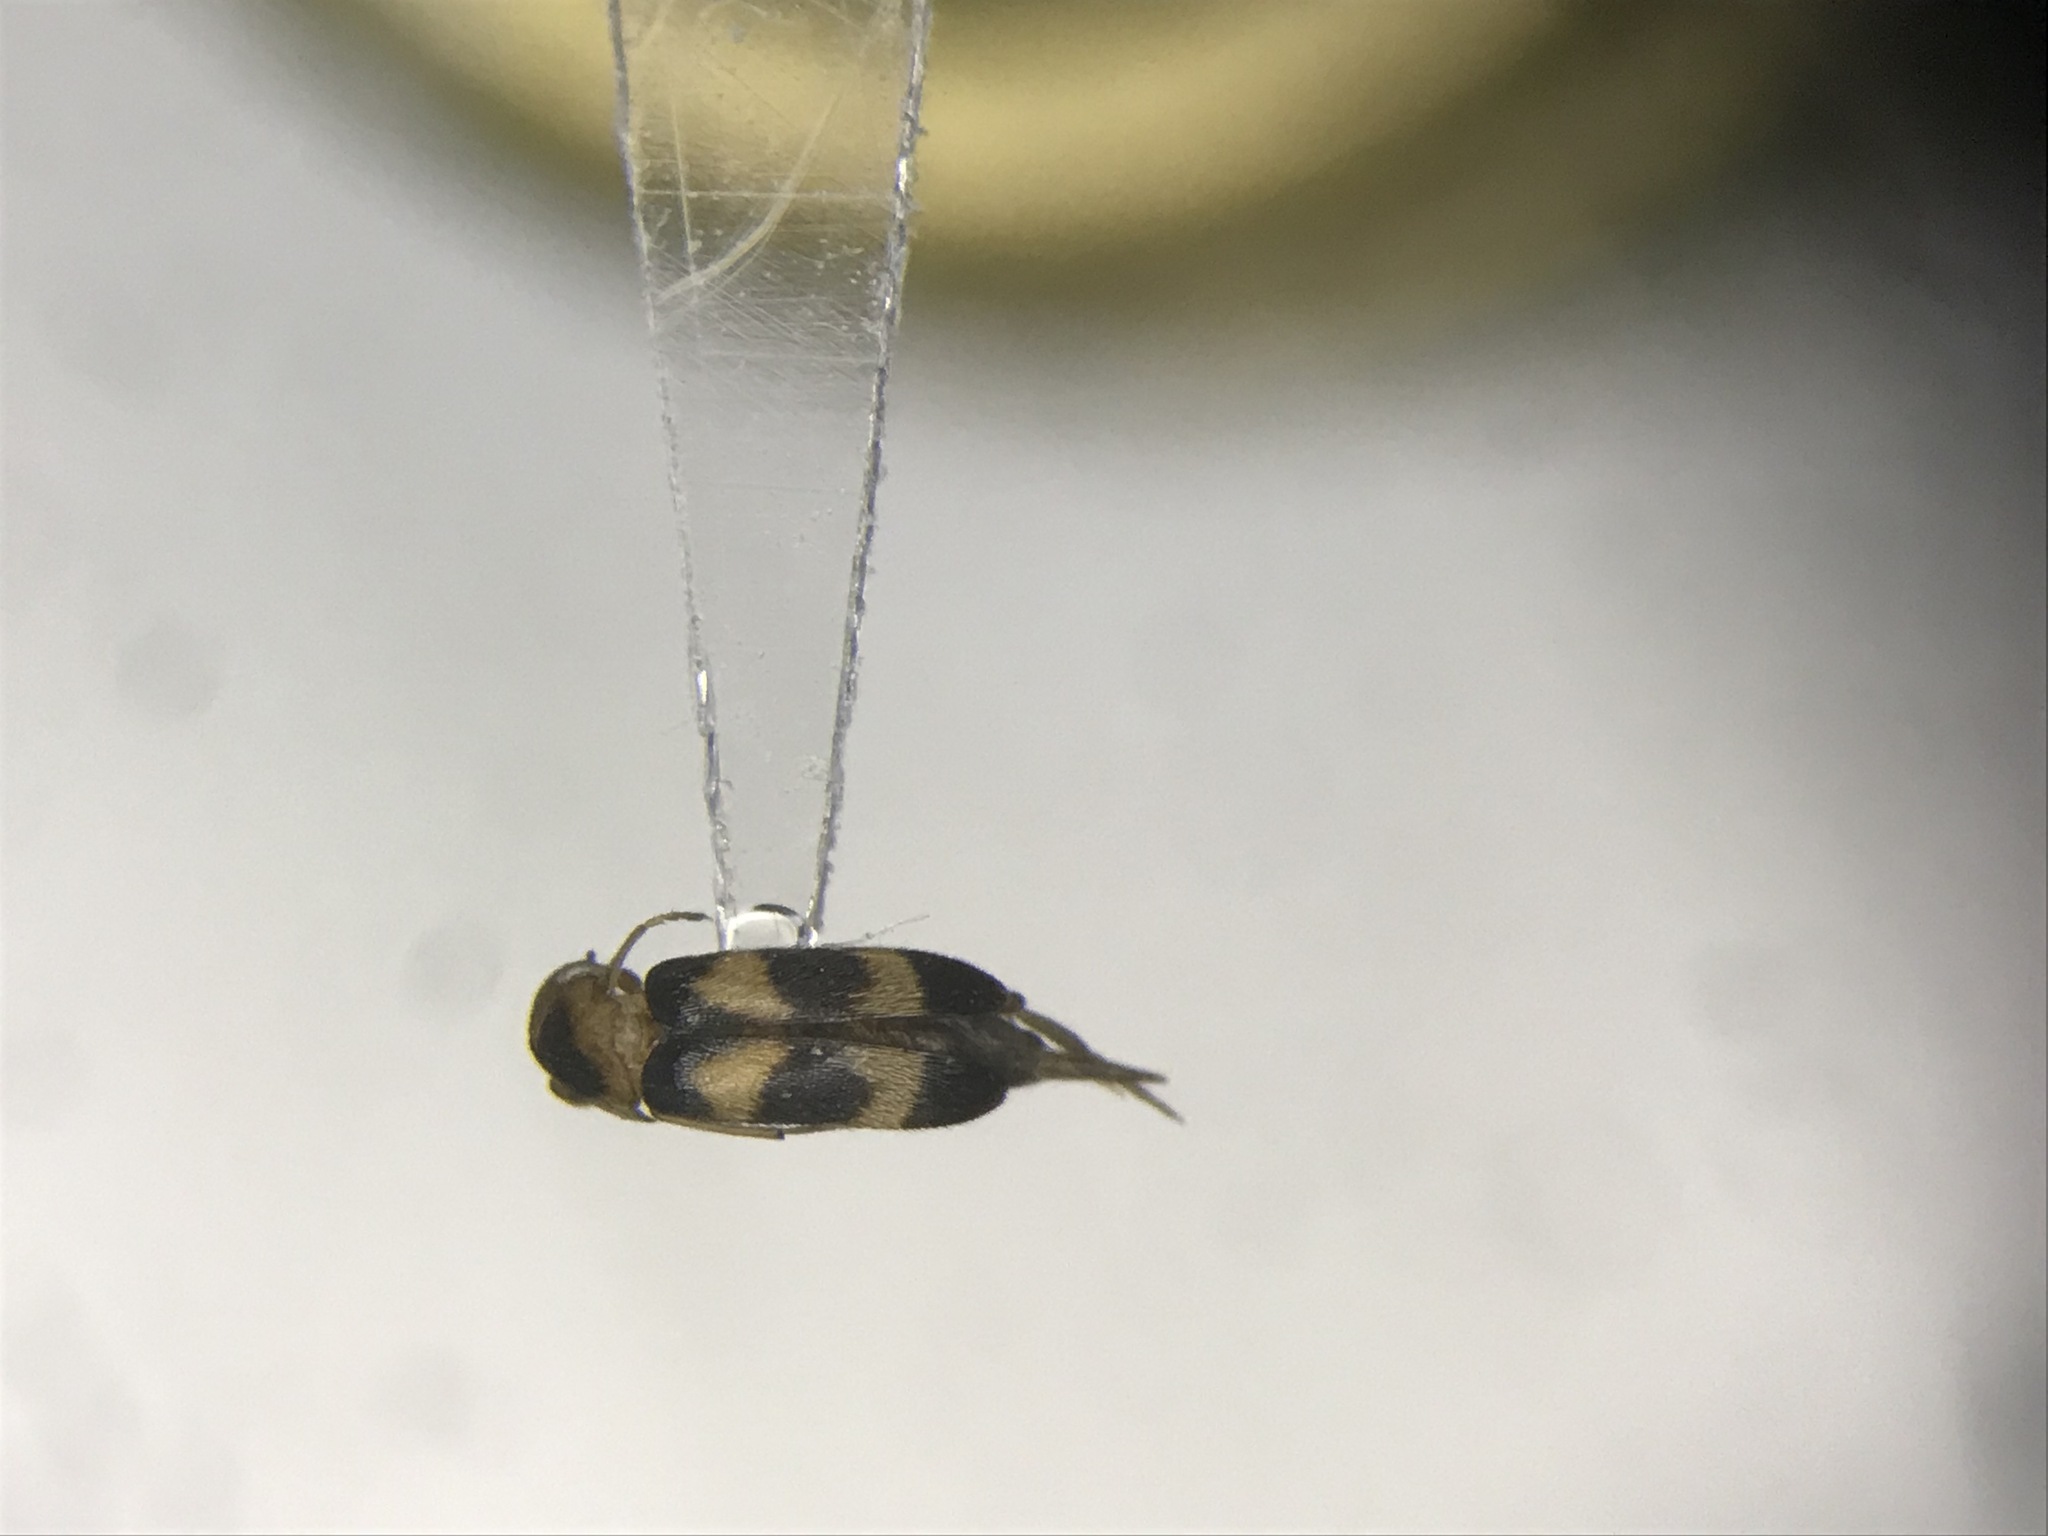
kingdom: Animalia
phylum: Arthropoda
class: Insecta
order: Coleoptera
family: Mordellidae
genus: Mordellistena
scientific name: Mordellistena trifasciata
